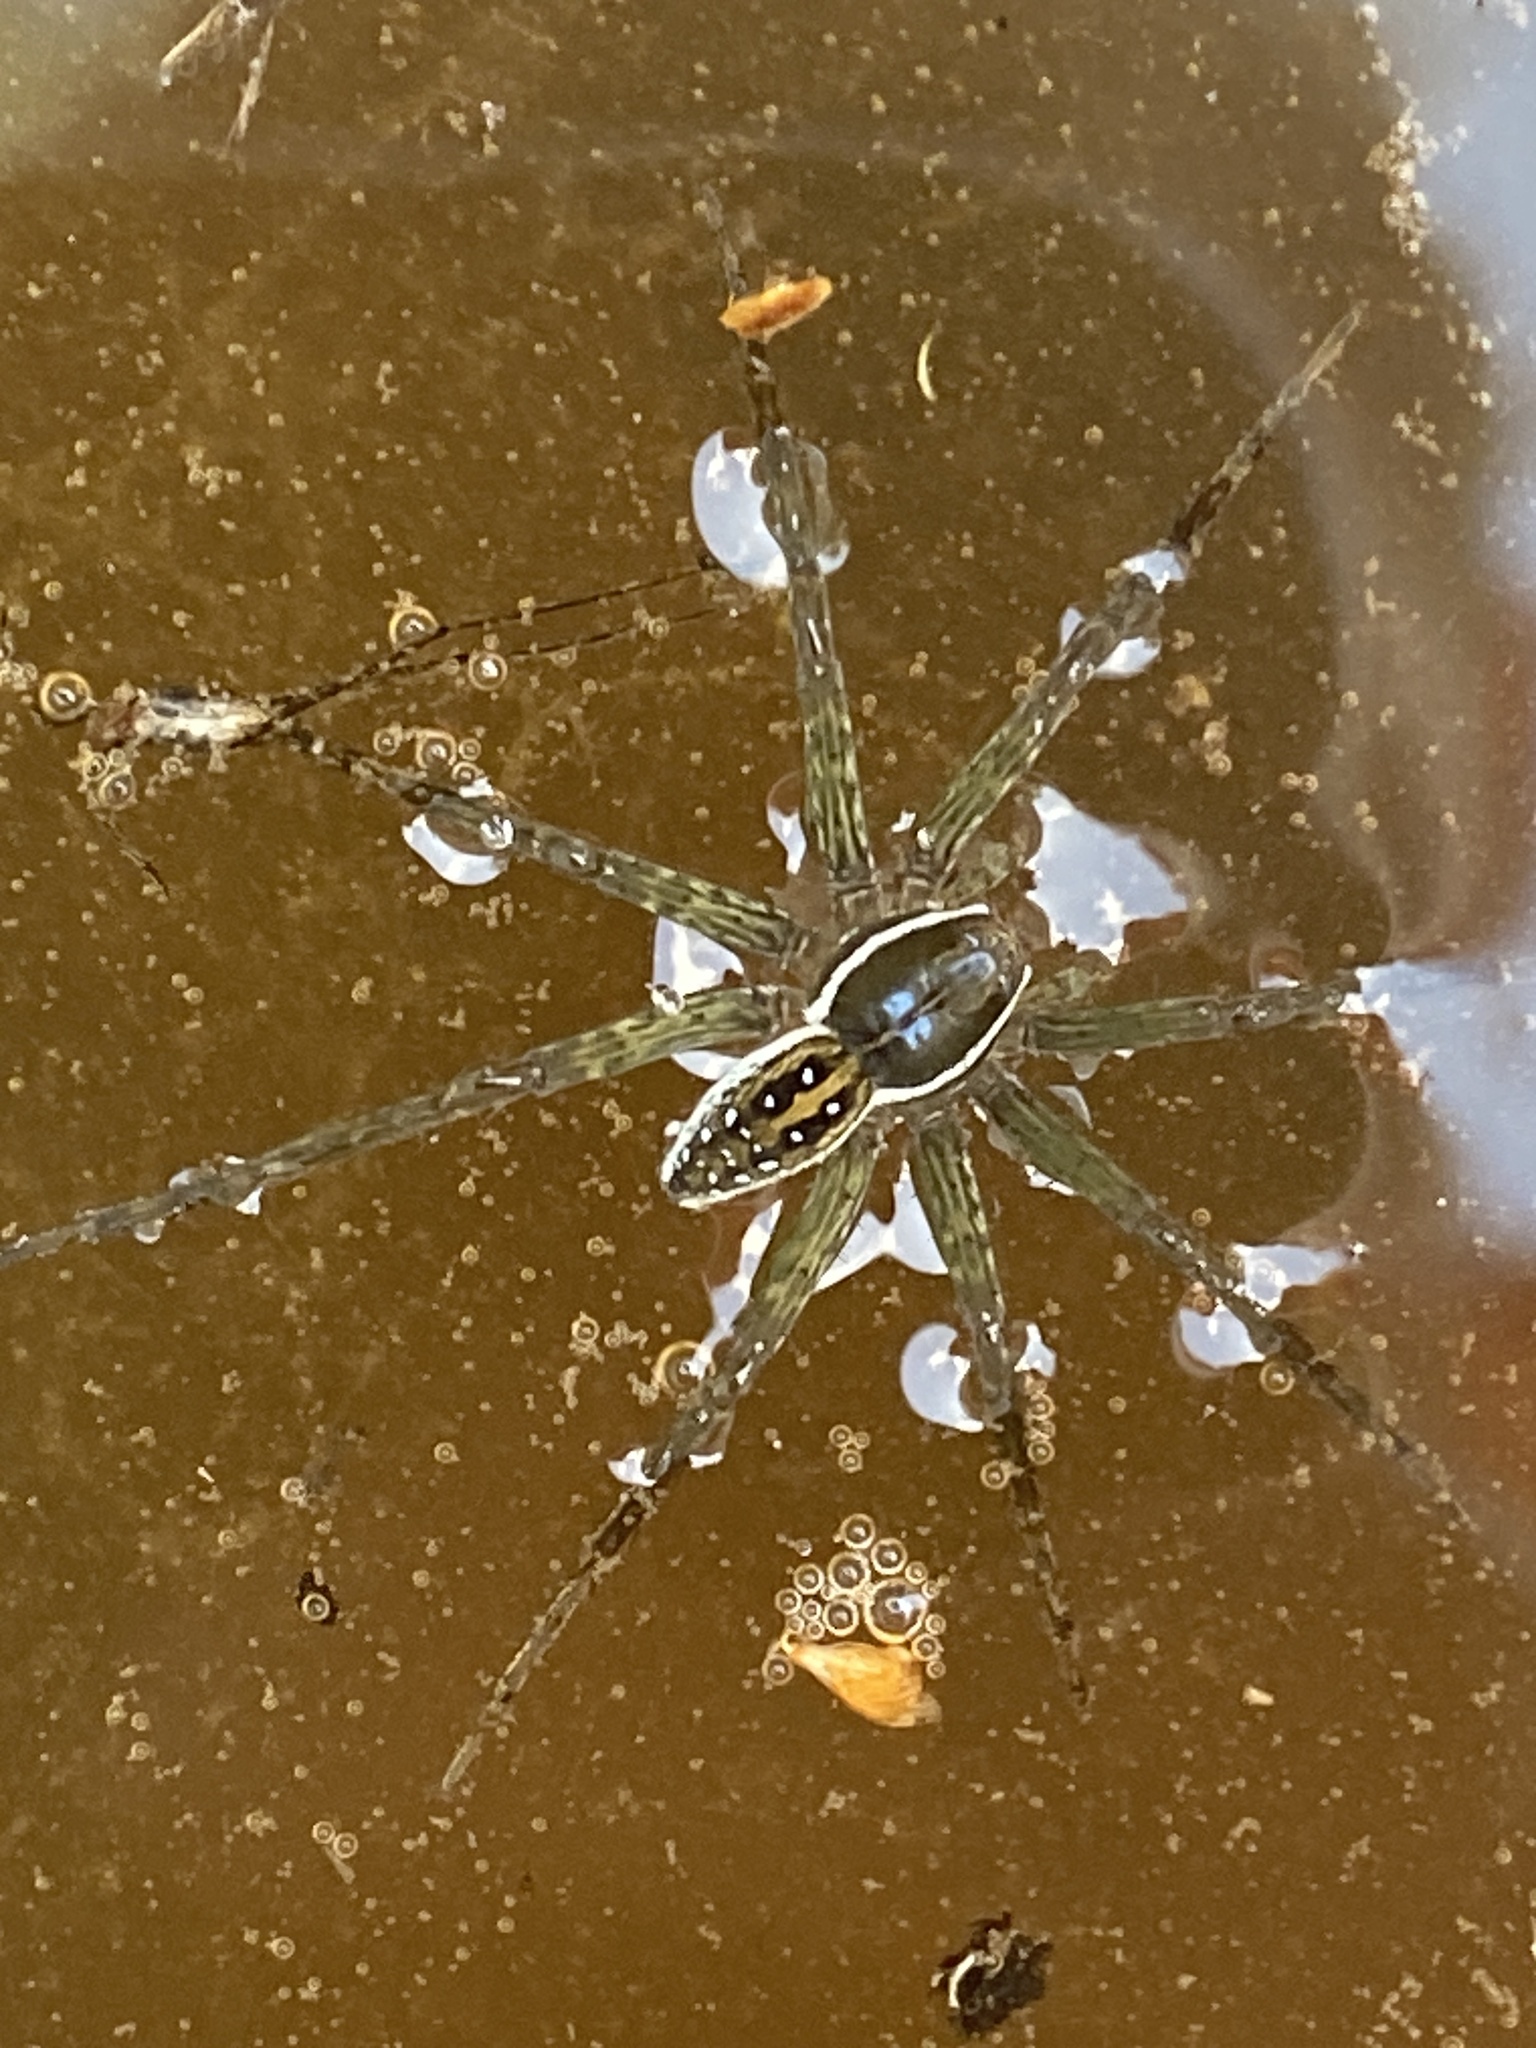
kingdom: Animalia
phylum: Arthropoda
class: Arachnida
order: Araneae
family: Pisauridae
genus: Dolomedes
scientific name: Dolomedes triton
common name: Six-spotted fishing spider
